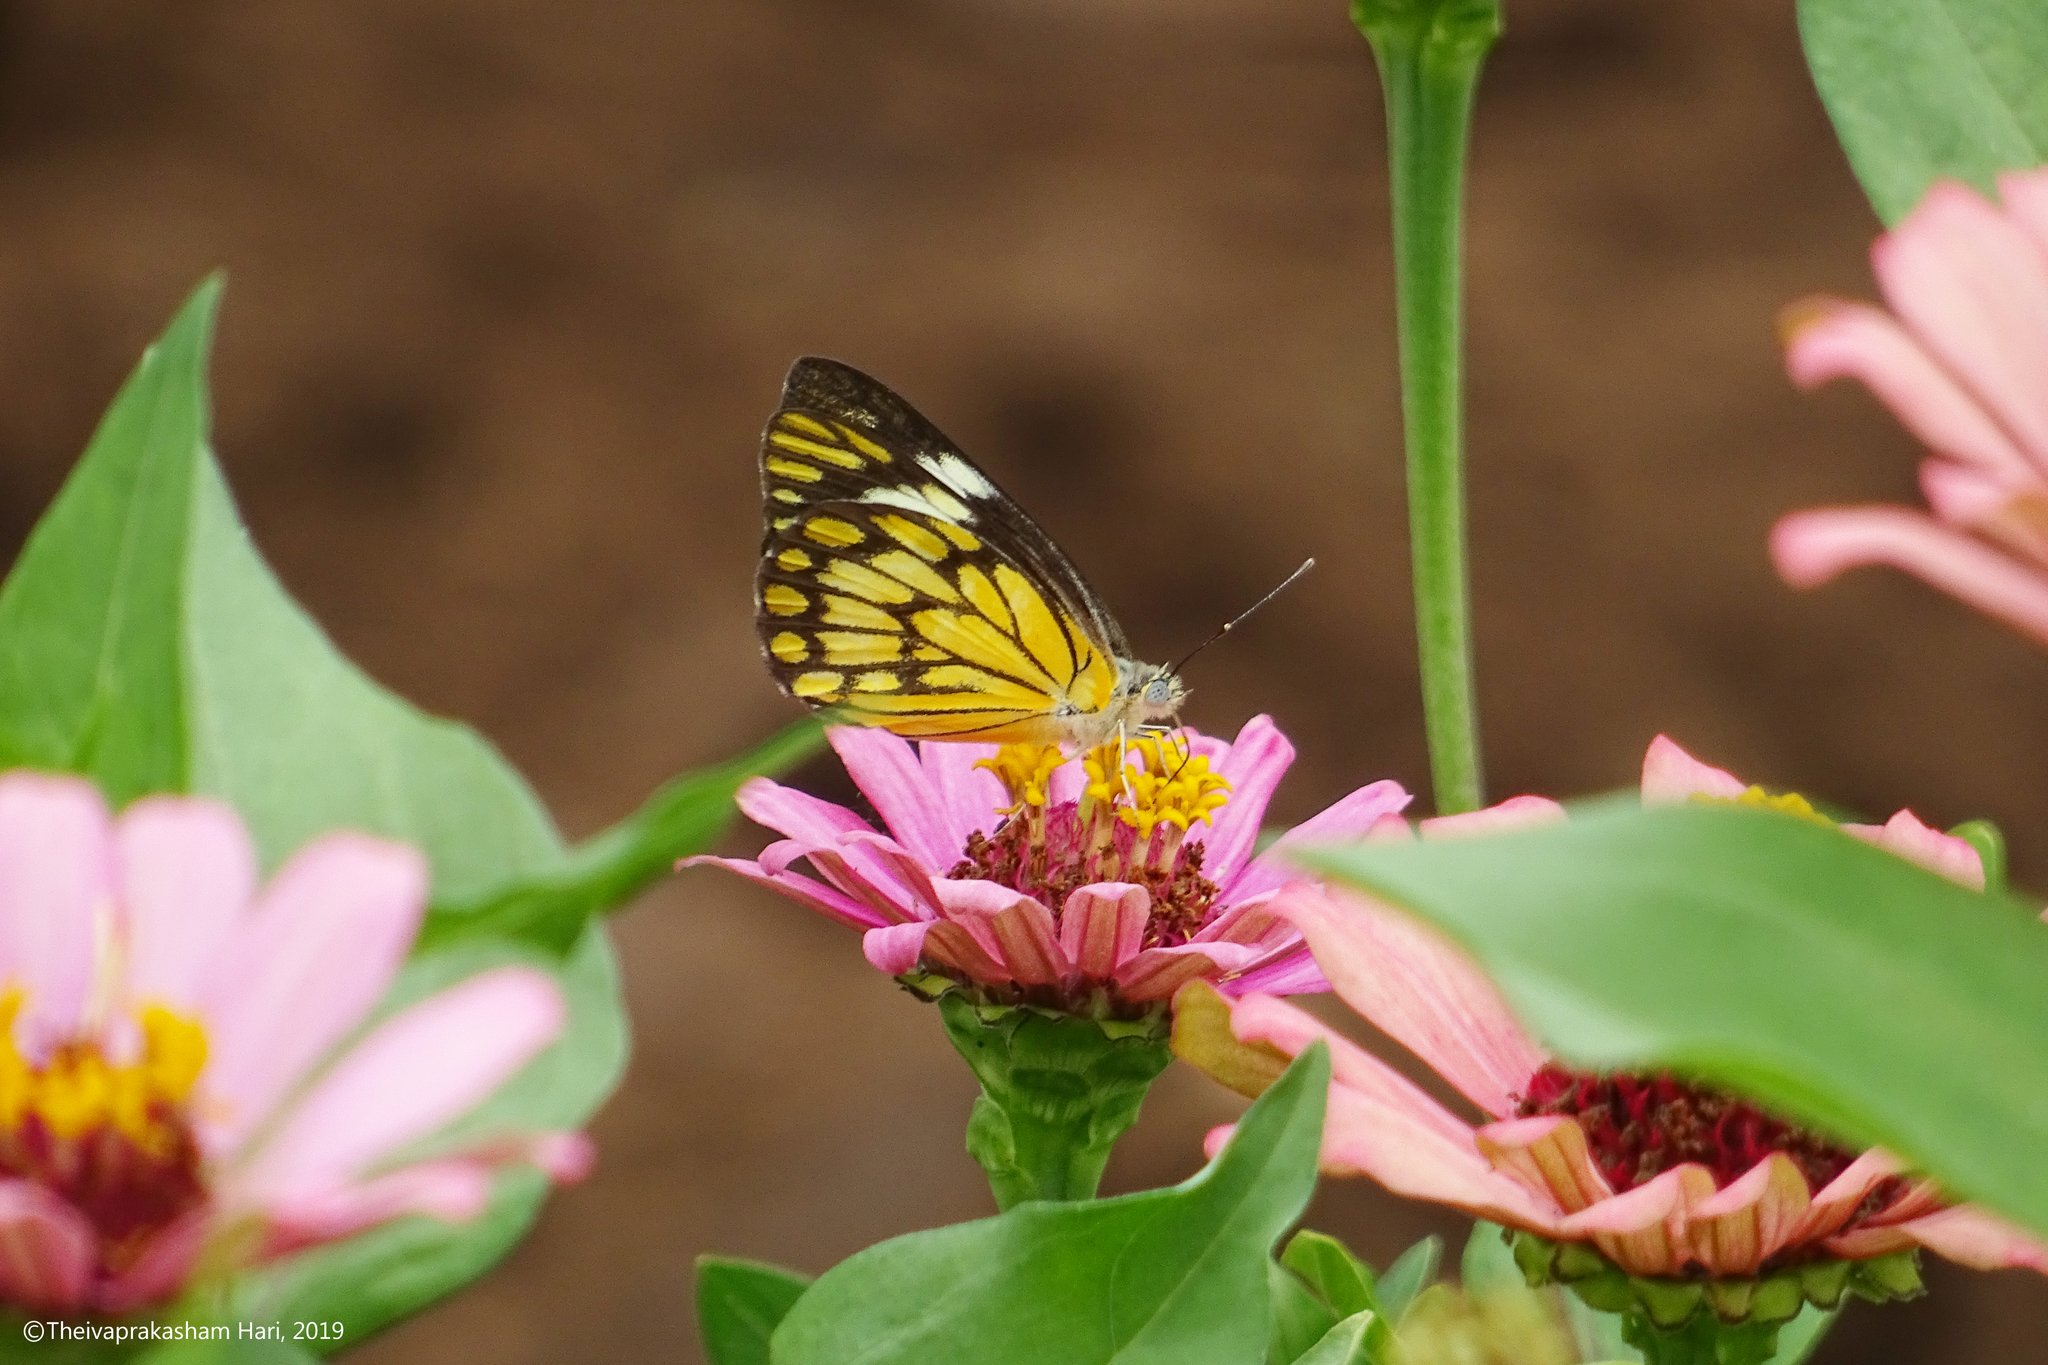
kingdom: Animalia
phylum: Arthropoda
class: Insecta
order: Lepidoptera
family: Pieridae
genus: Belenois
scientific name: Belenois aurota
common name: Brown-veined white
